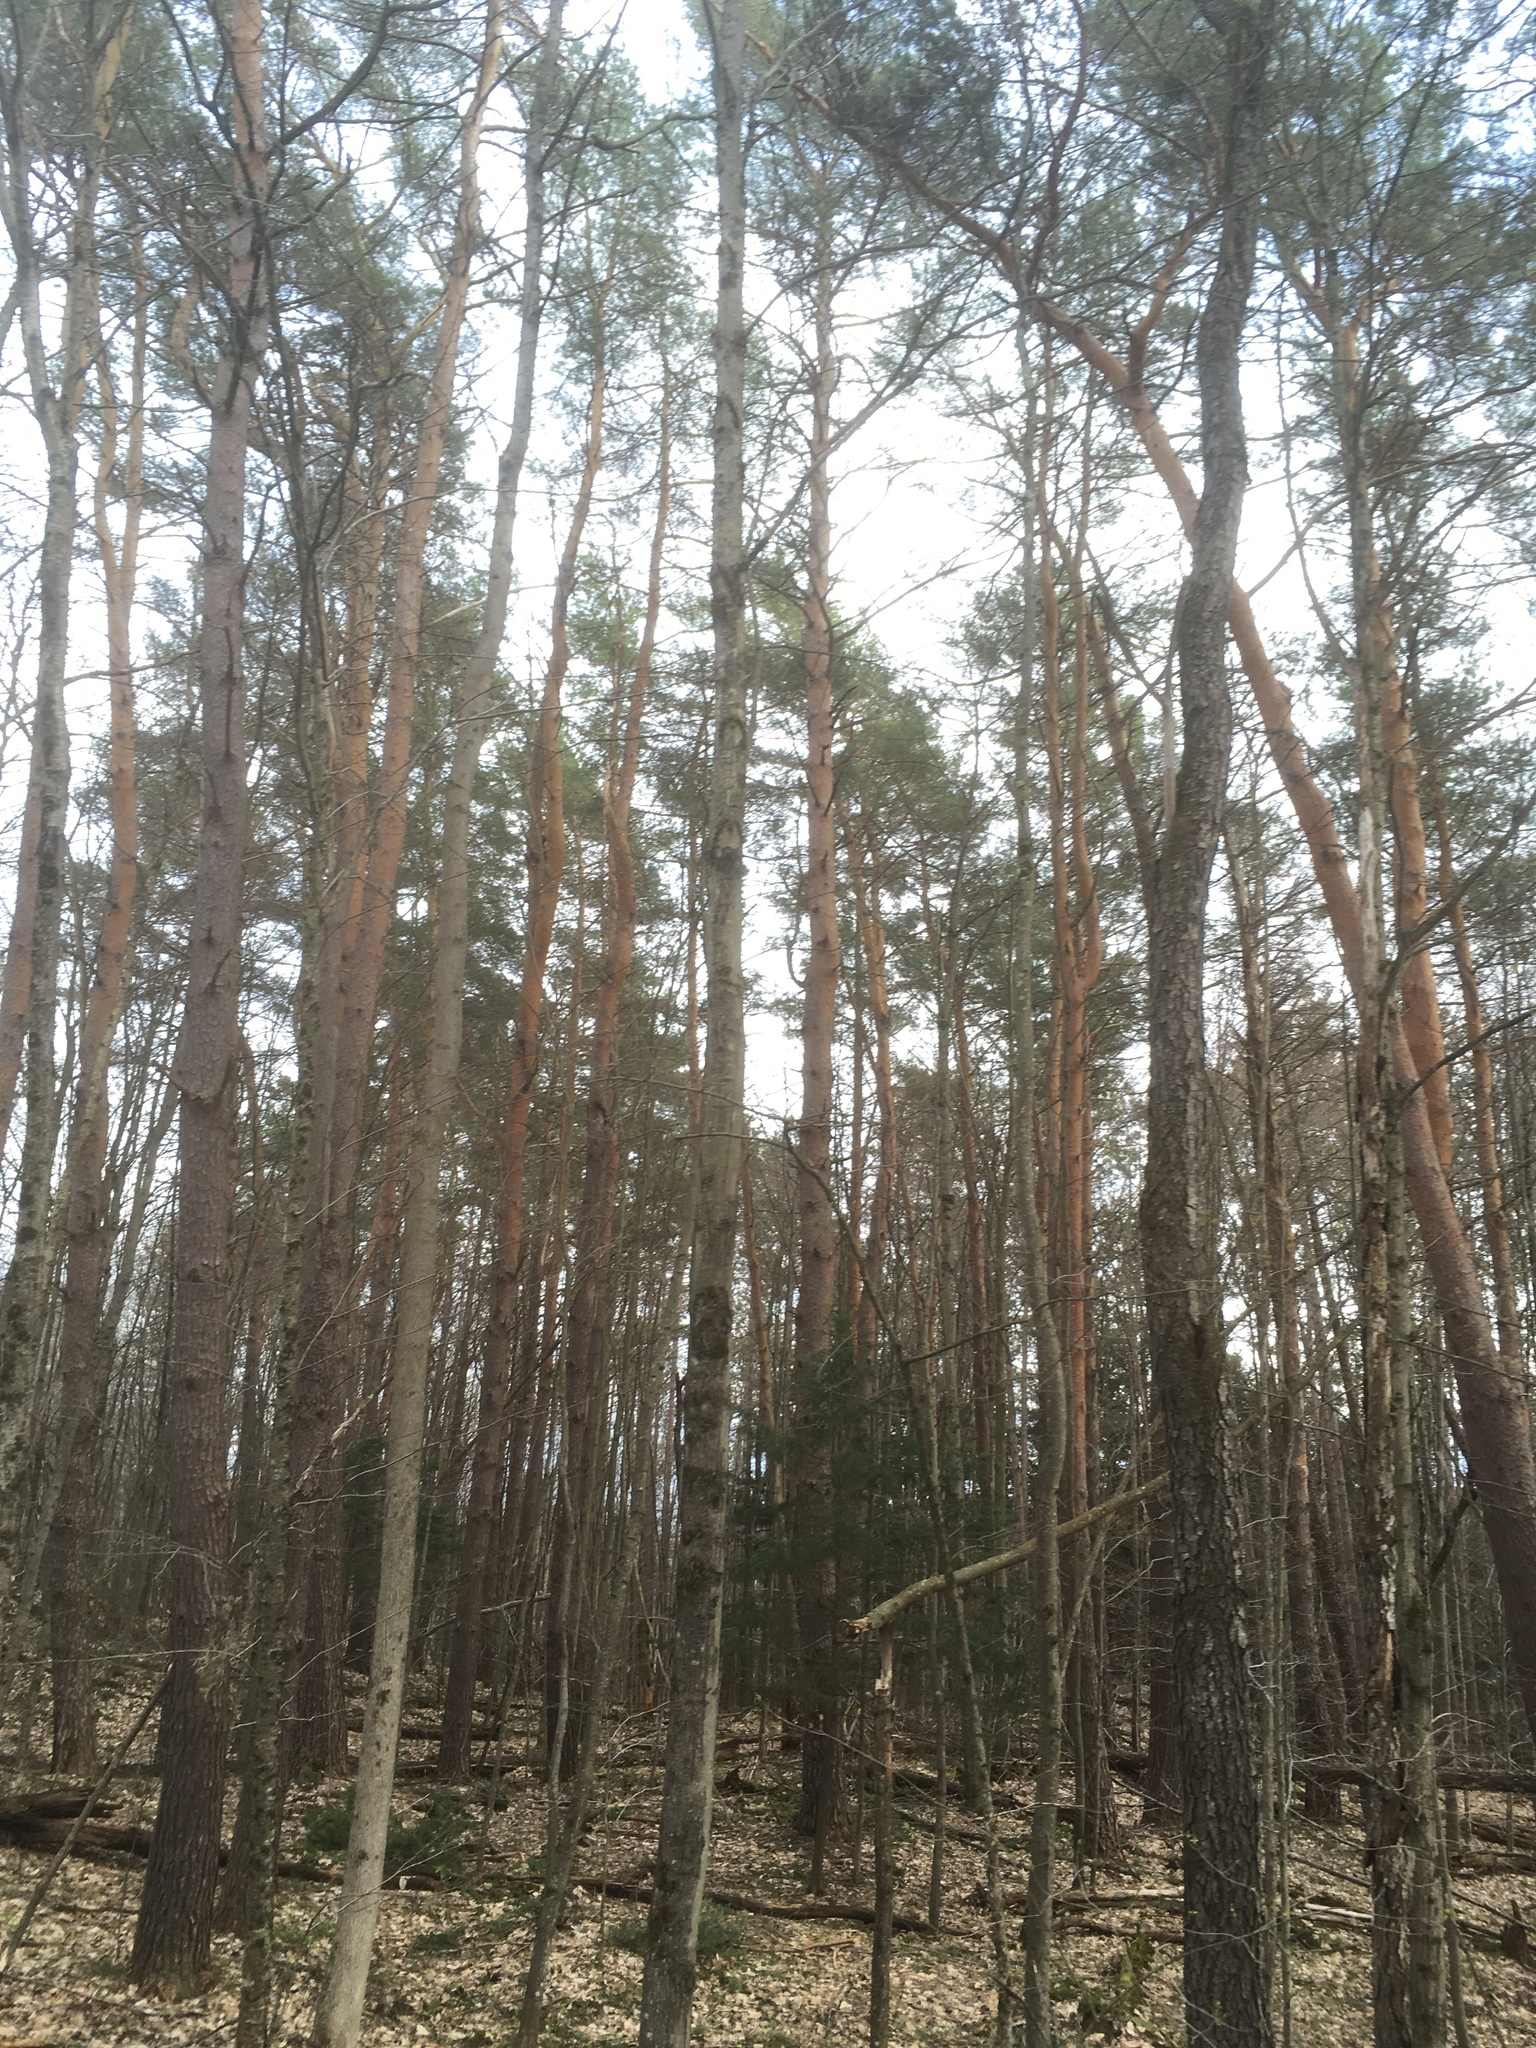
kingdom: Plantae
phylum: Tracheophyta
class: Pinopsida
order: Pinales
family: Pinaceae
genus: Pinus
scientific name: Pinus sylvestris
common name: Scots pine
